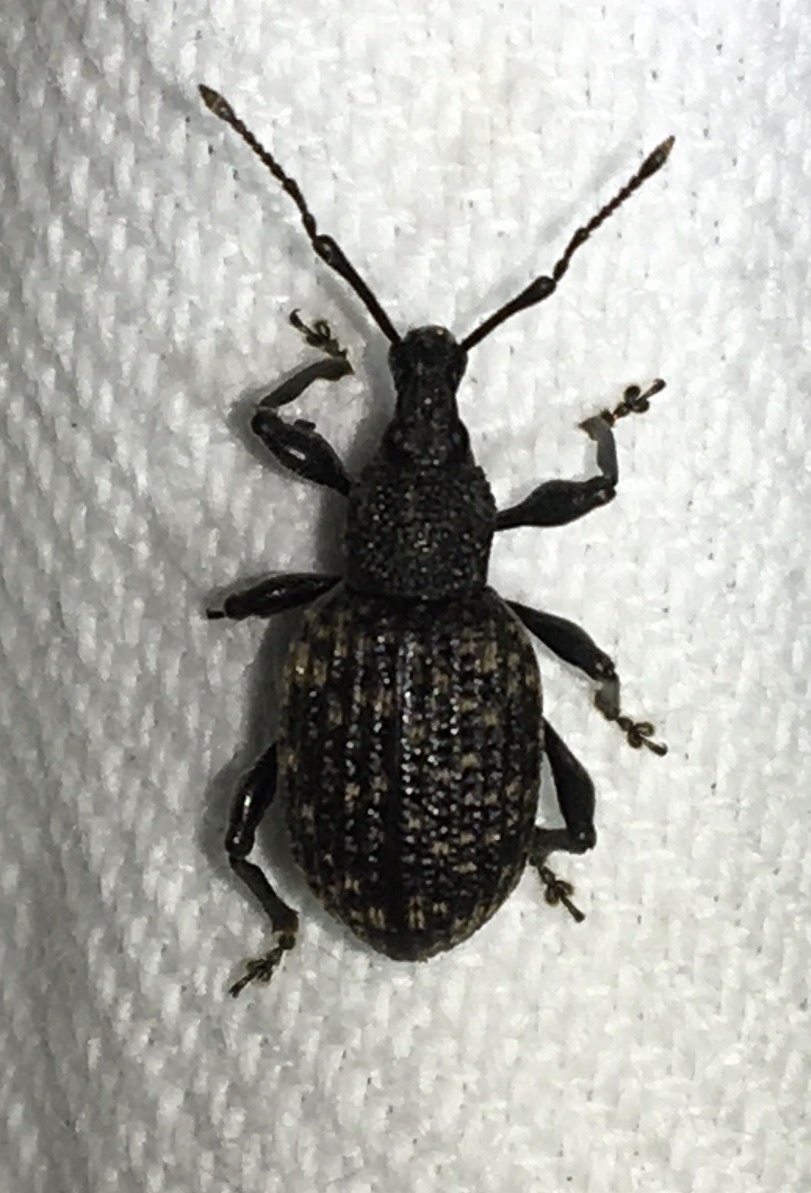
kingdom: Animalia
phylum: Arthropoda
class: Insecta
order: Coleoptera
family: Curculionidae
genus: Otiorhynchus
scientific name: Otiorhynchus sulcatus
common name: Black vine weevil
